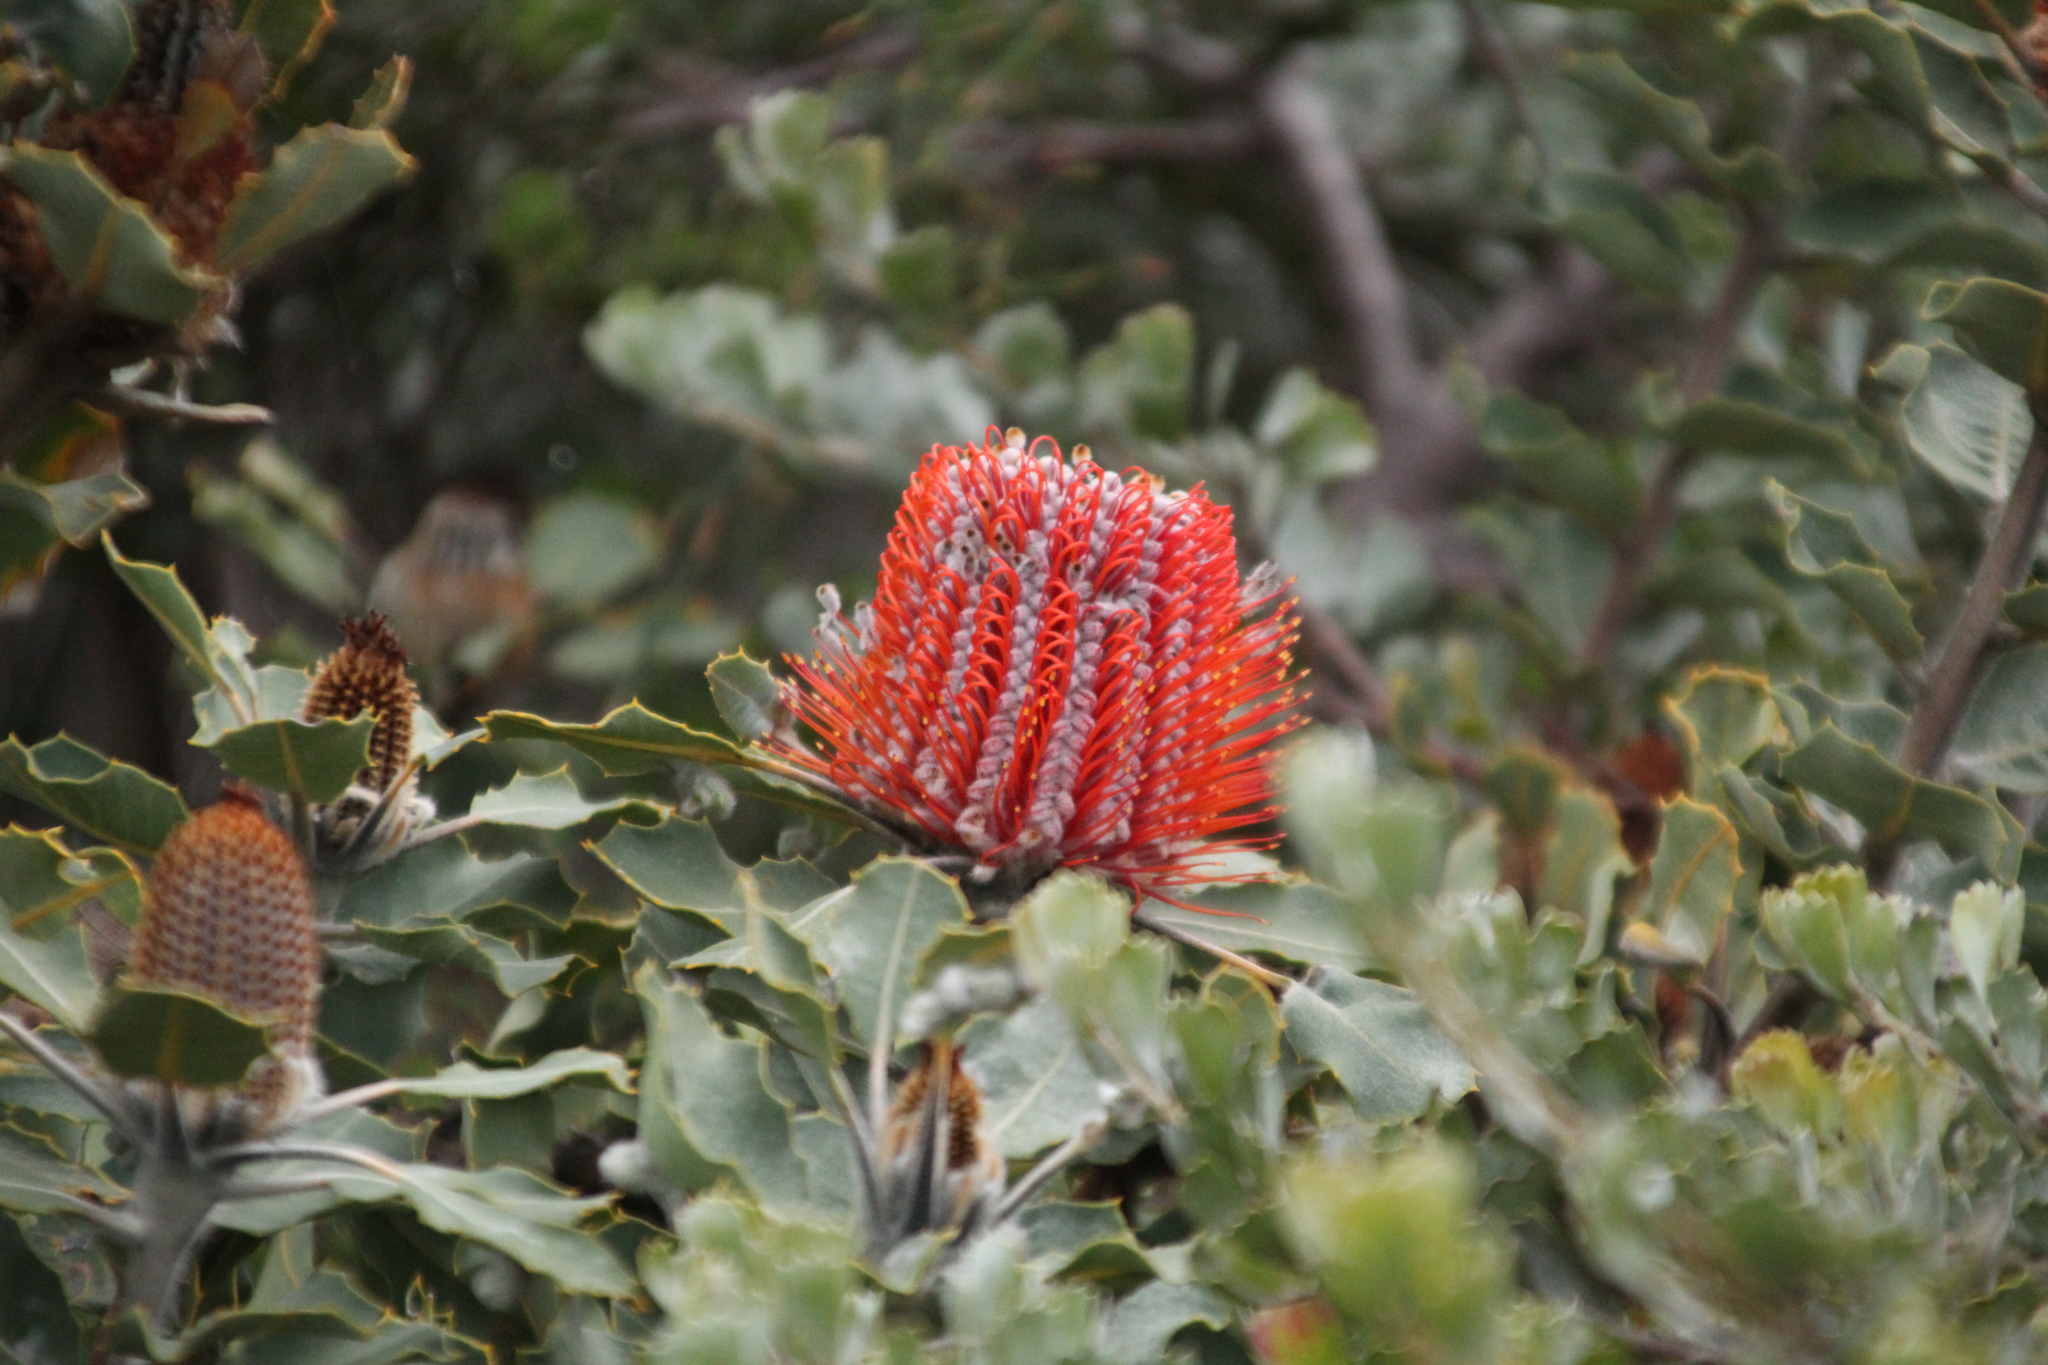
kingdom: Plantae
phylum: Tracheophyta
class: Magnoliopsida
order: Proteales
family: Proteaceae
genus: Banksia
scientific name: Banksia coccinea
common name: Scarlet banksia
